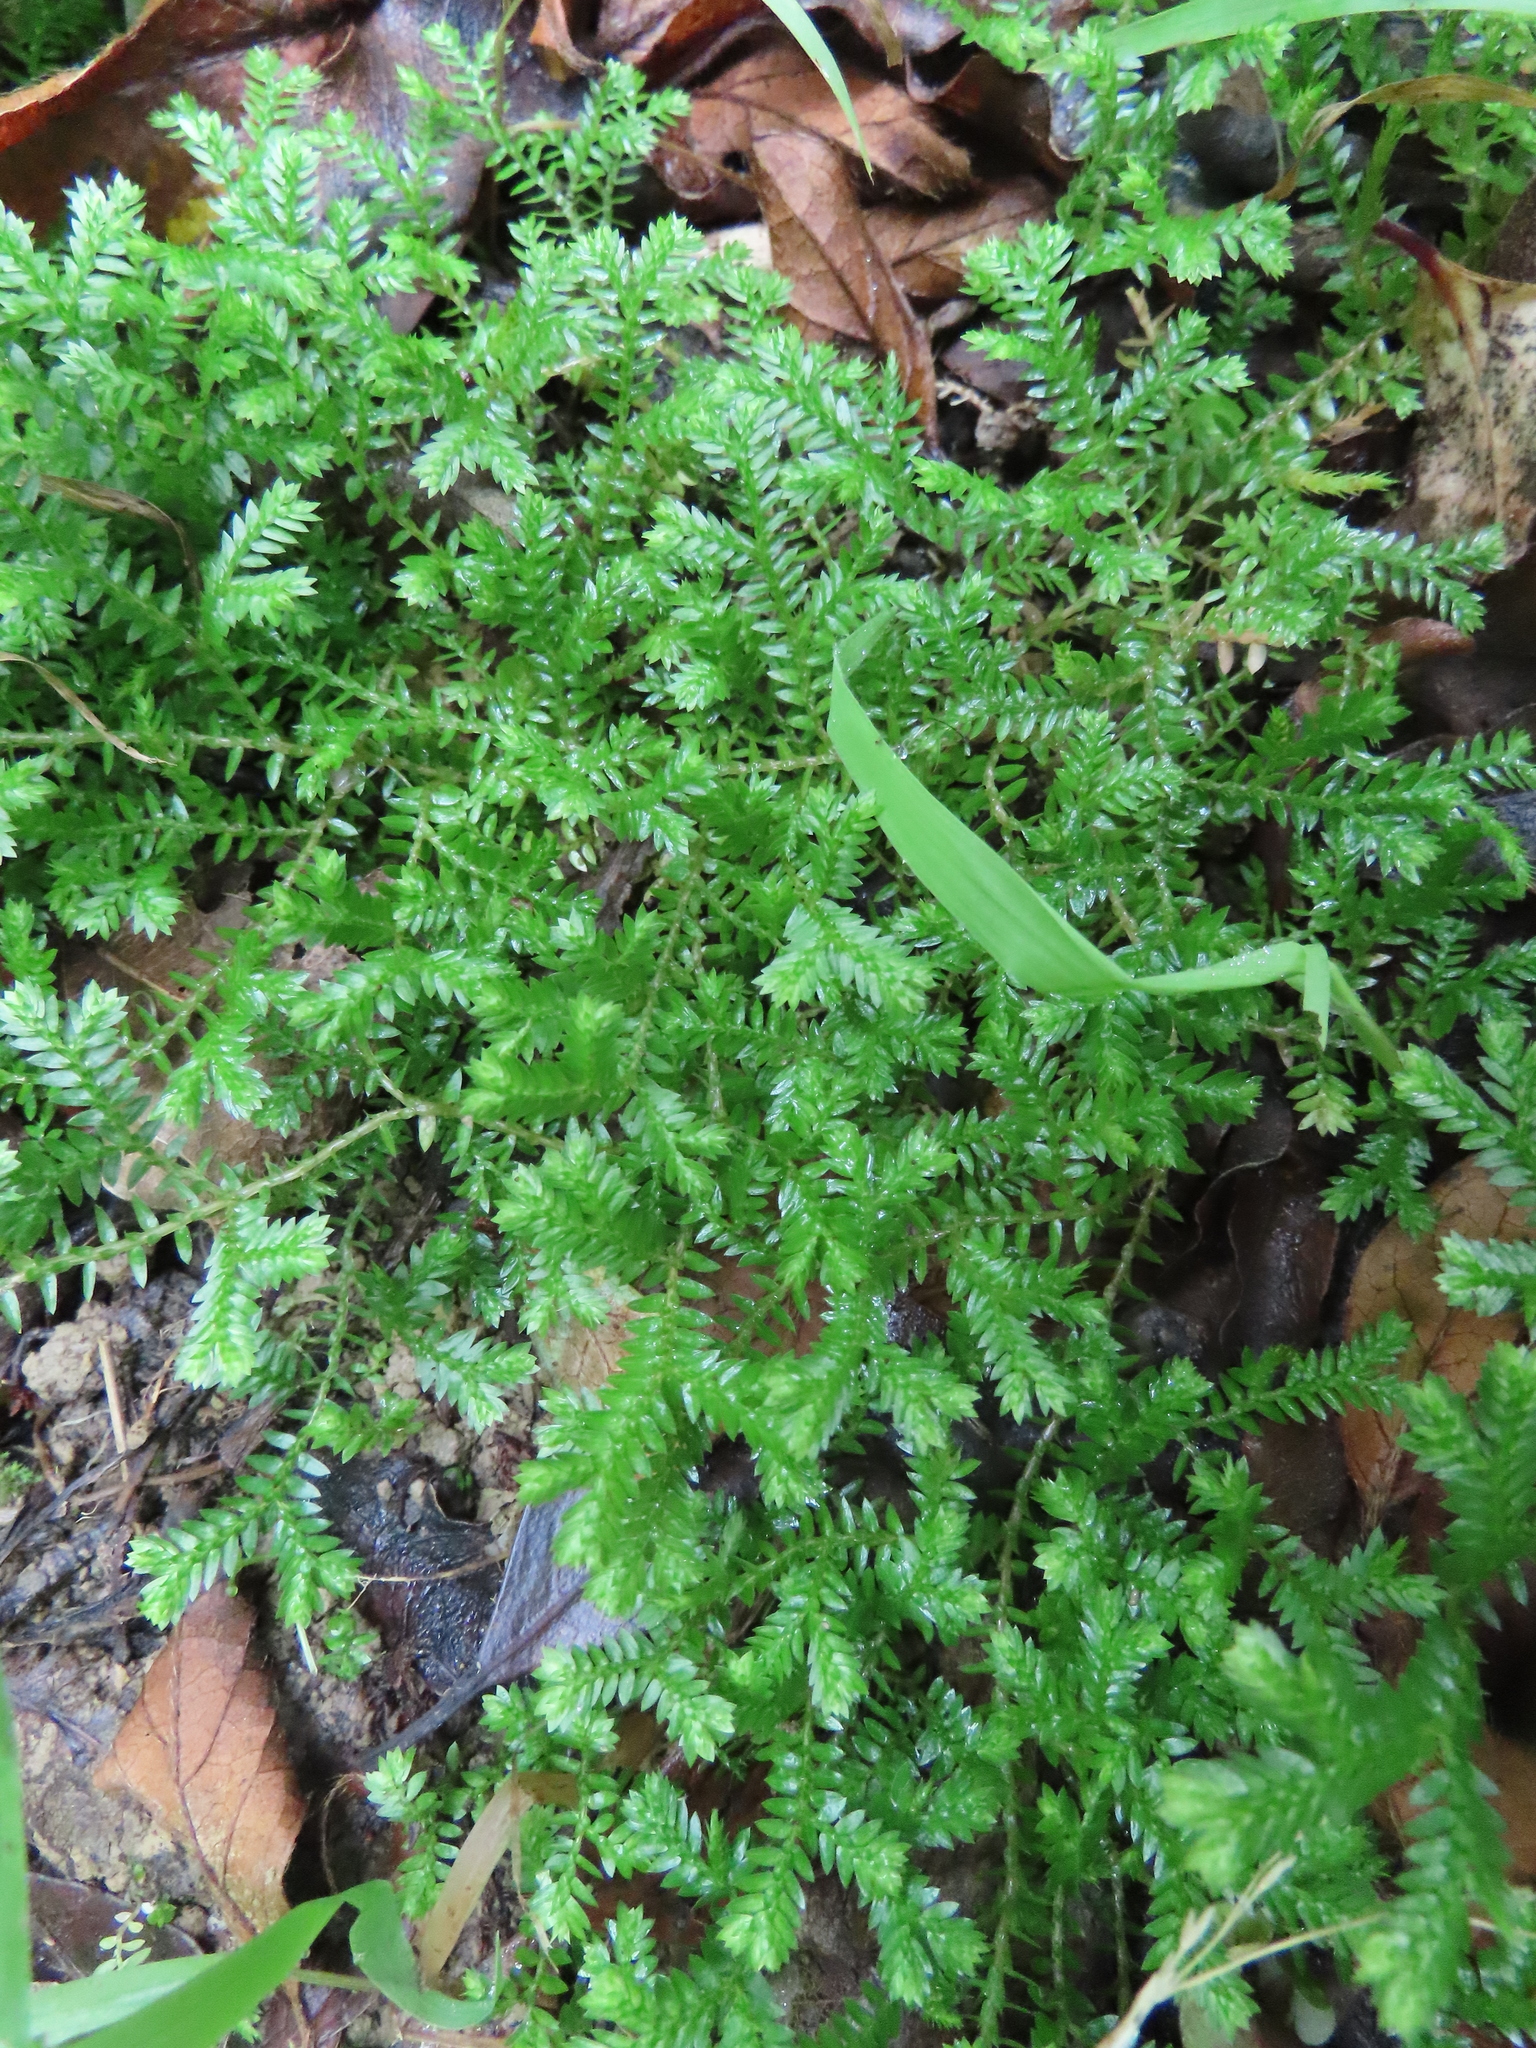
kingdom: Plantae
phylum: Tracheophyta
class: Lycopodiopsida
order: Selaginellales
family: Selaginellaceae
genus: Selaginella
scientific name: Selaginella kraussiana
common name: Krauss' spikemoss
